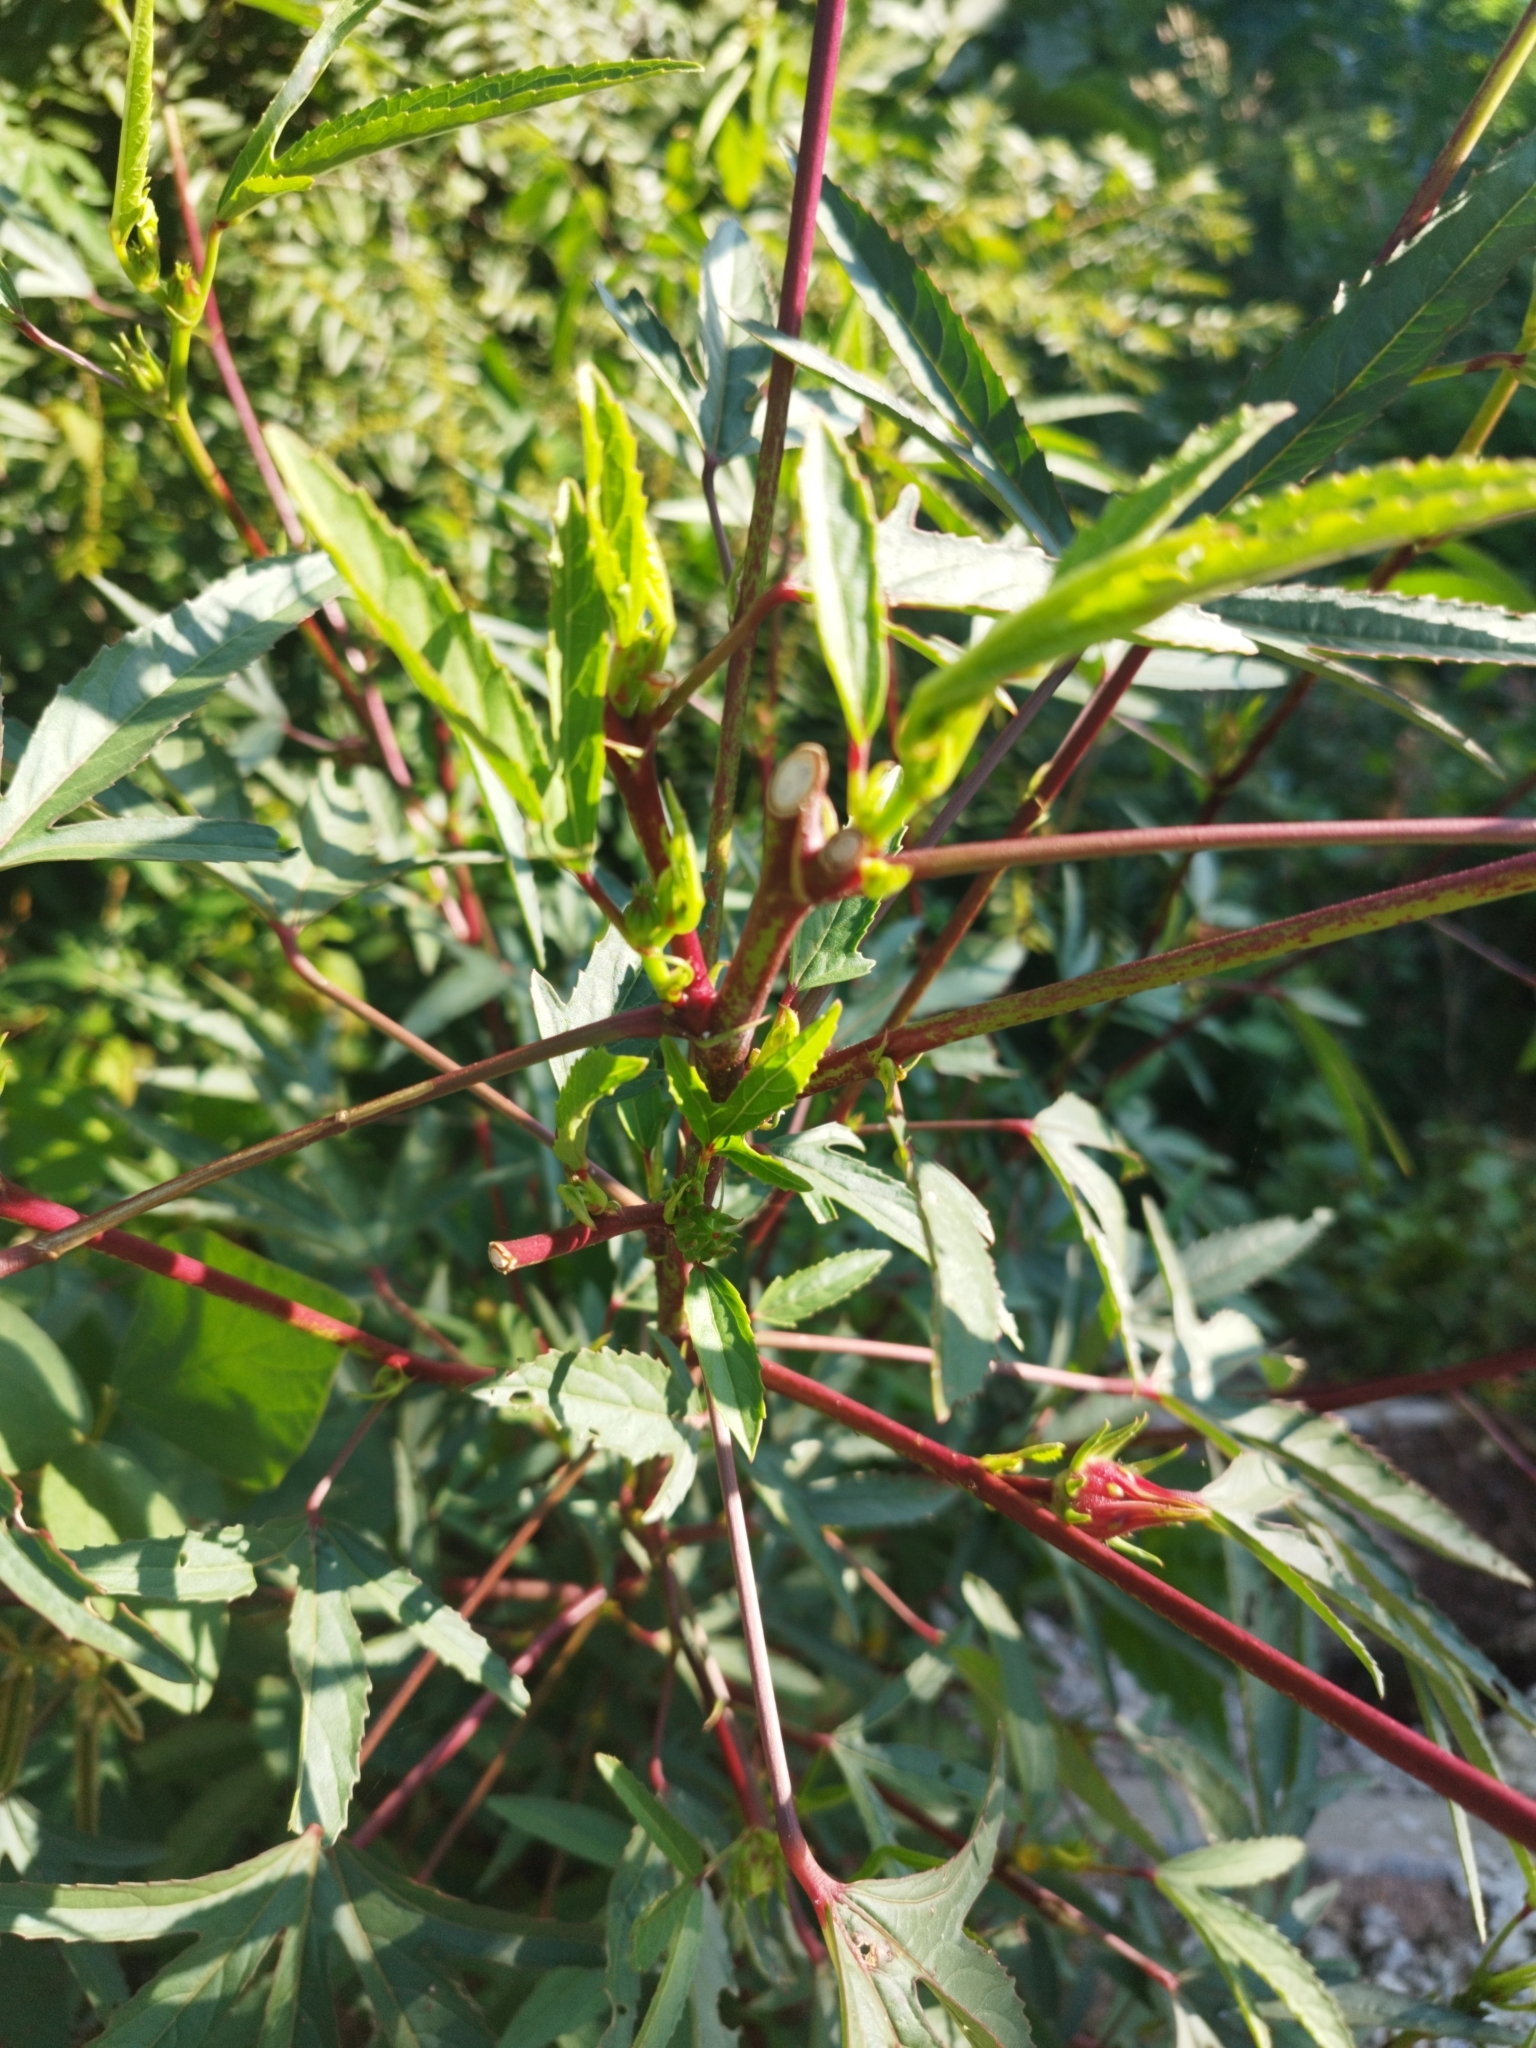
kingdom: Plantae
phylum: Tracheophyta
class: Magnoliopsida
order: Malvales
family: Malvaceae
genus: Hibiscus
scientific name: Hibiscus sabdariffa
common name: Roselle
